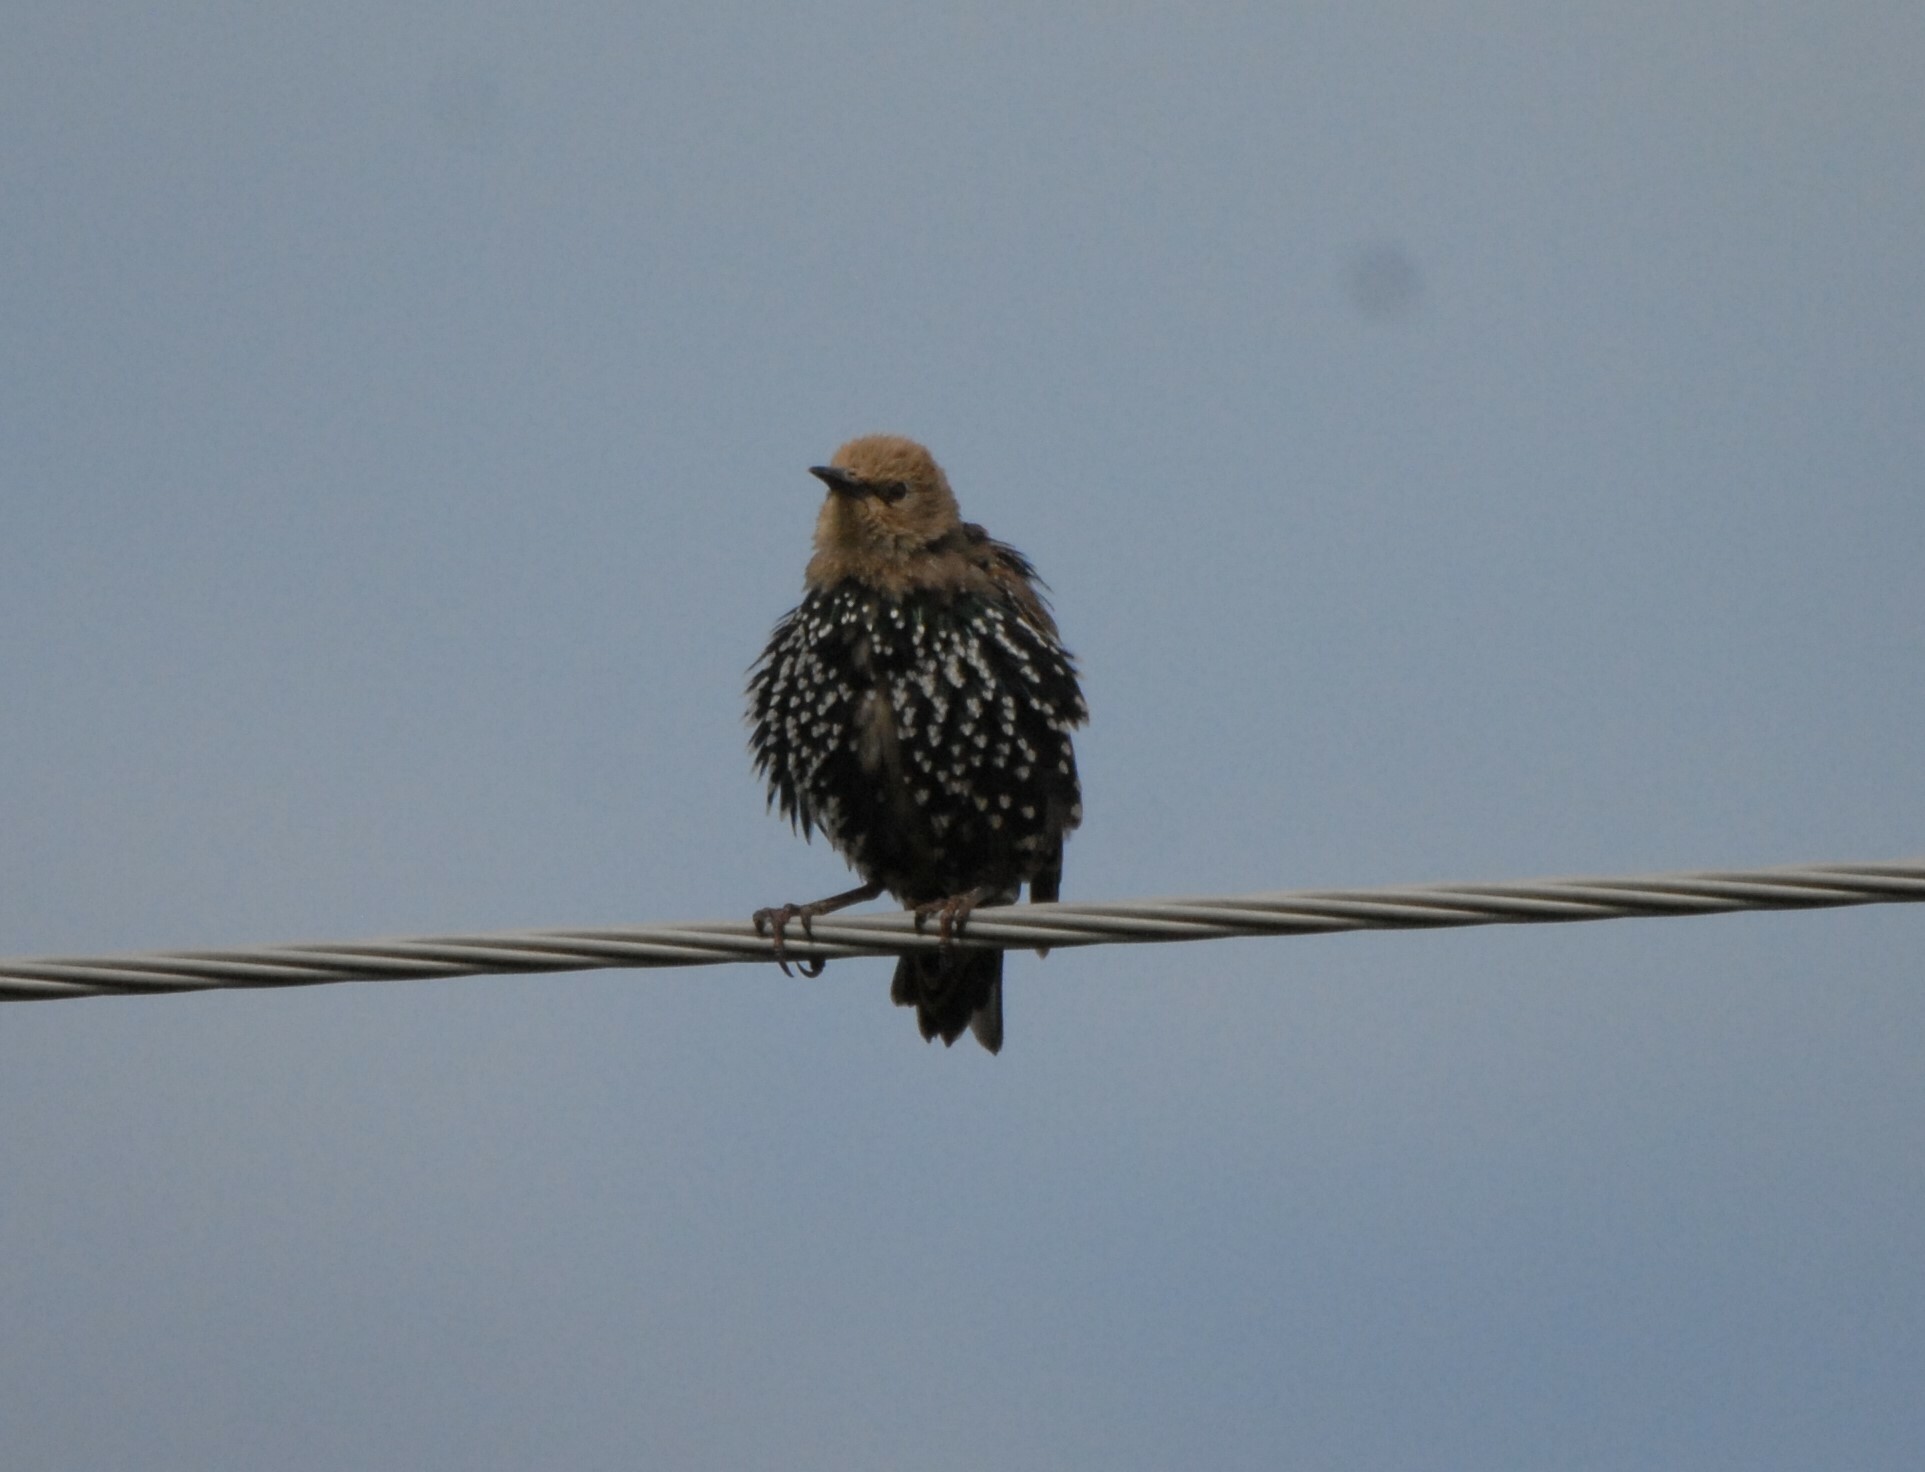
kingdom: Animalia
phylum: Chordata
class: Aves
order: Passeriformes
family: Sturnidae
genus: Sturnus
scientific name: Sturnus vulgaris
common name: Common starling
